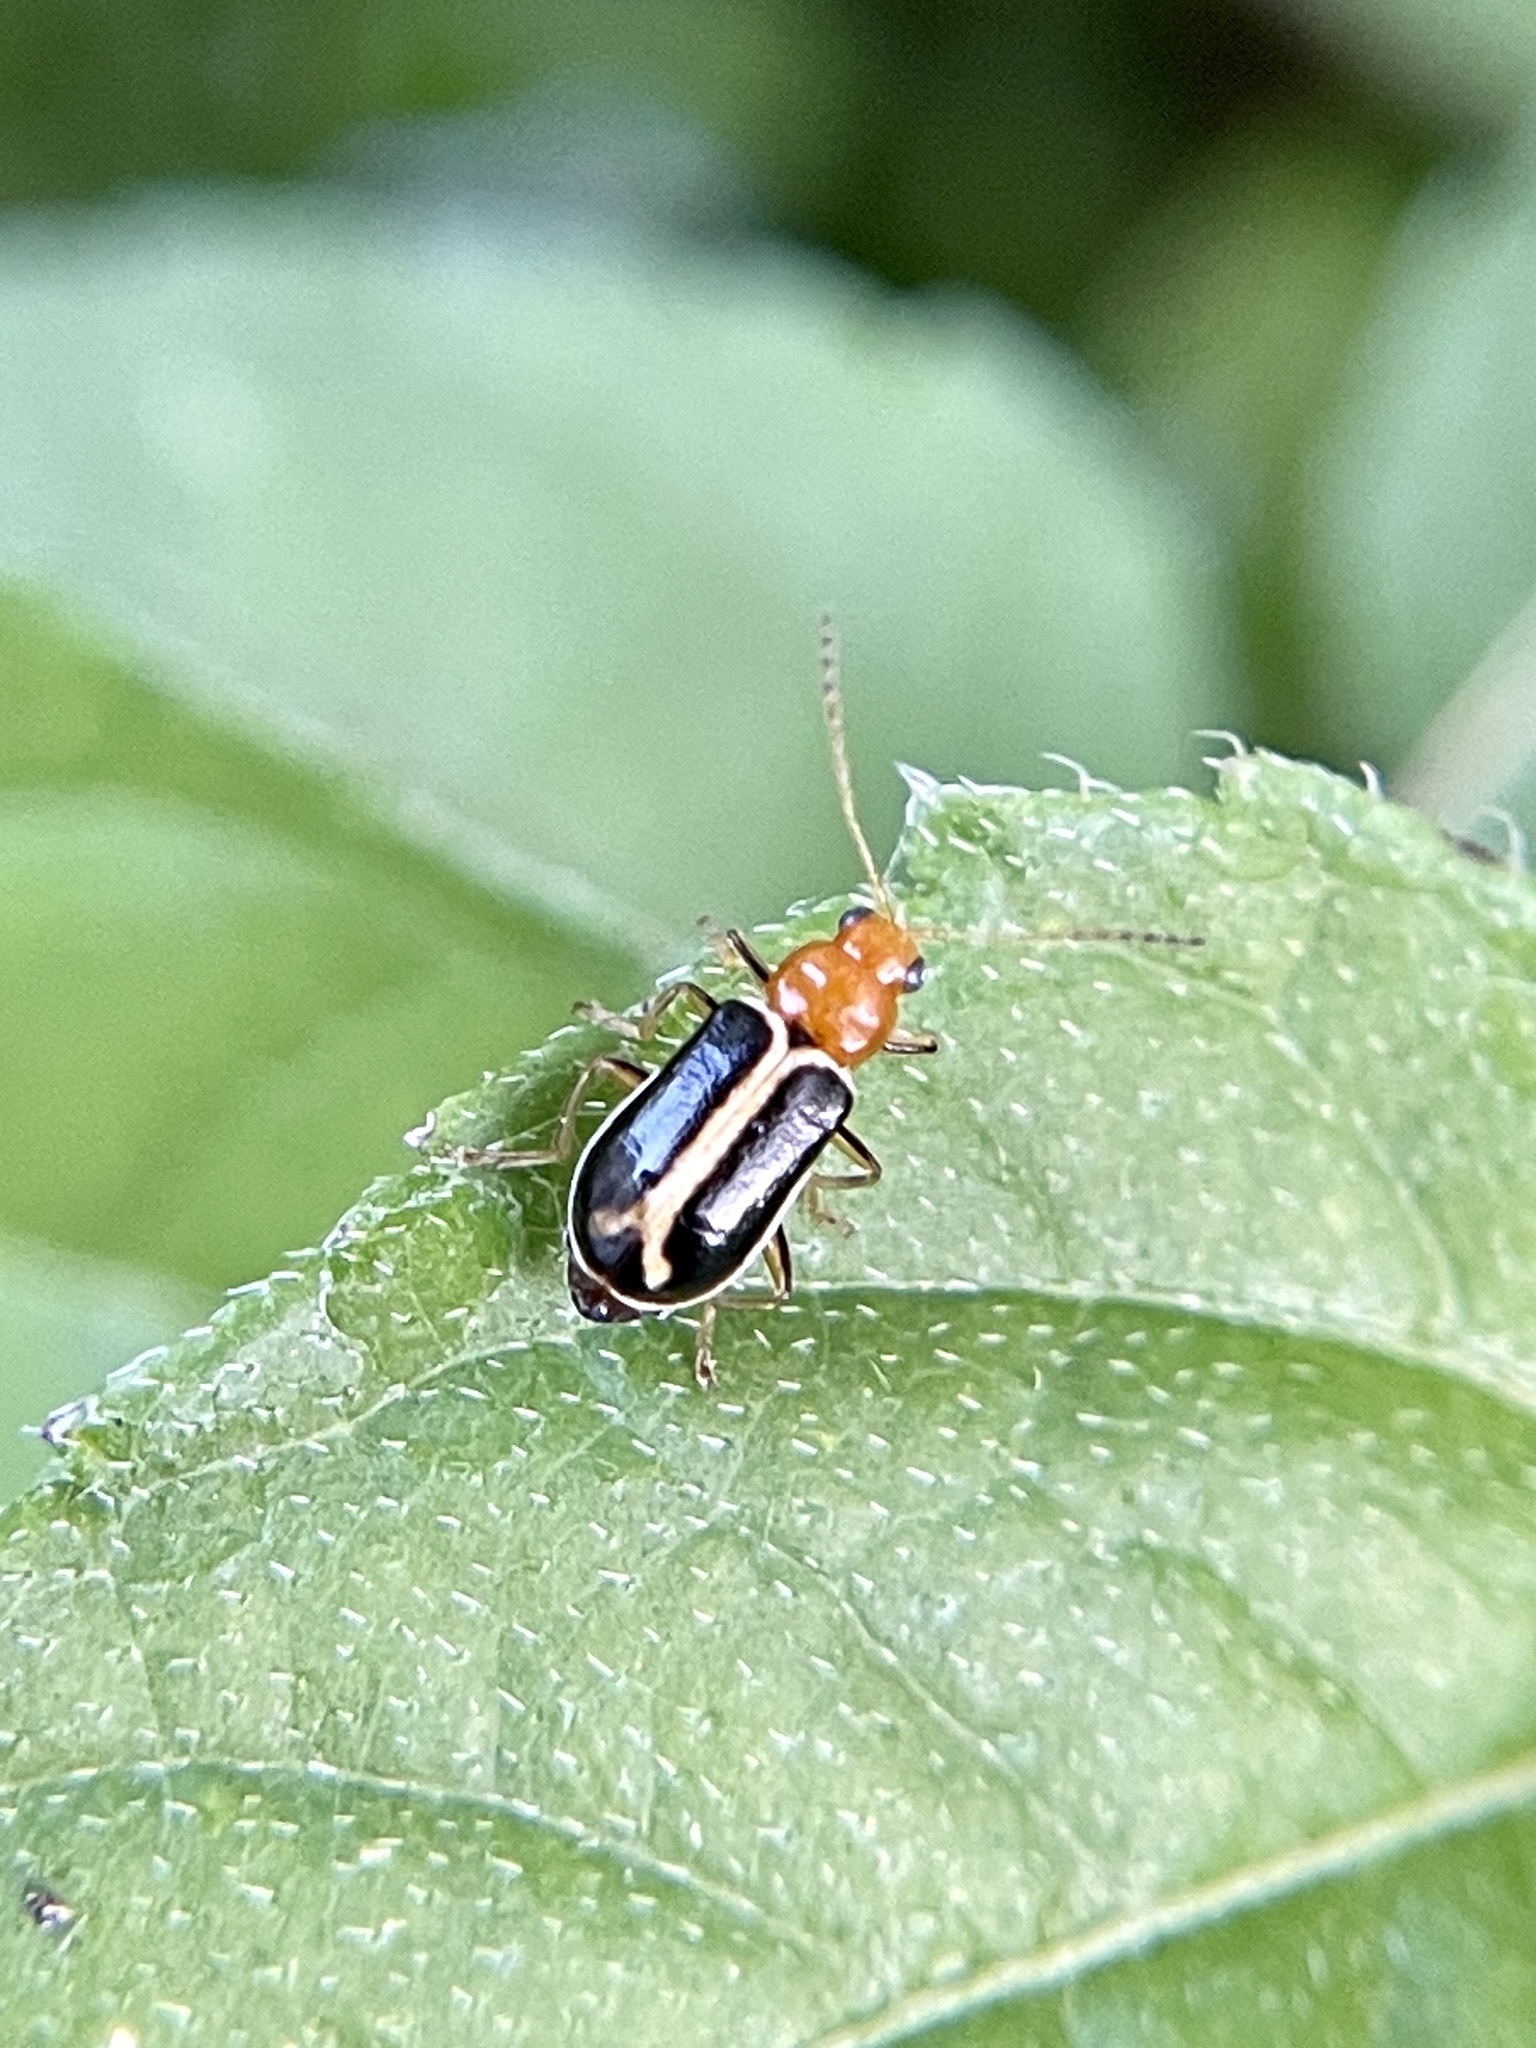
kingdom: Animalia
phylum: Arthropoda
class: Insecta
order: Coleoptera
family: Chrysomelidae
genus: Cyclotrypema
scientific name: Cyclotrypema furcata
